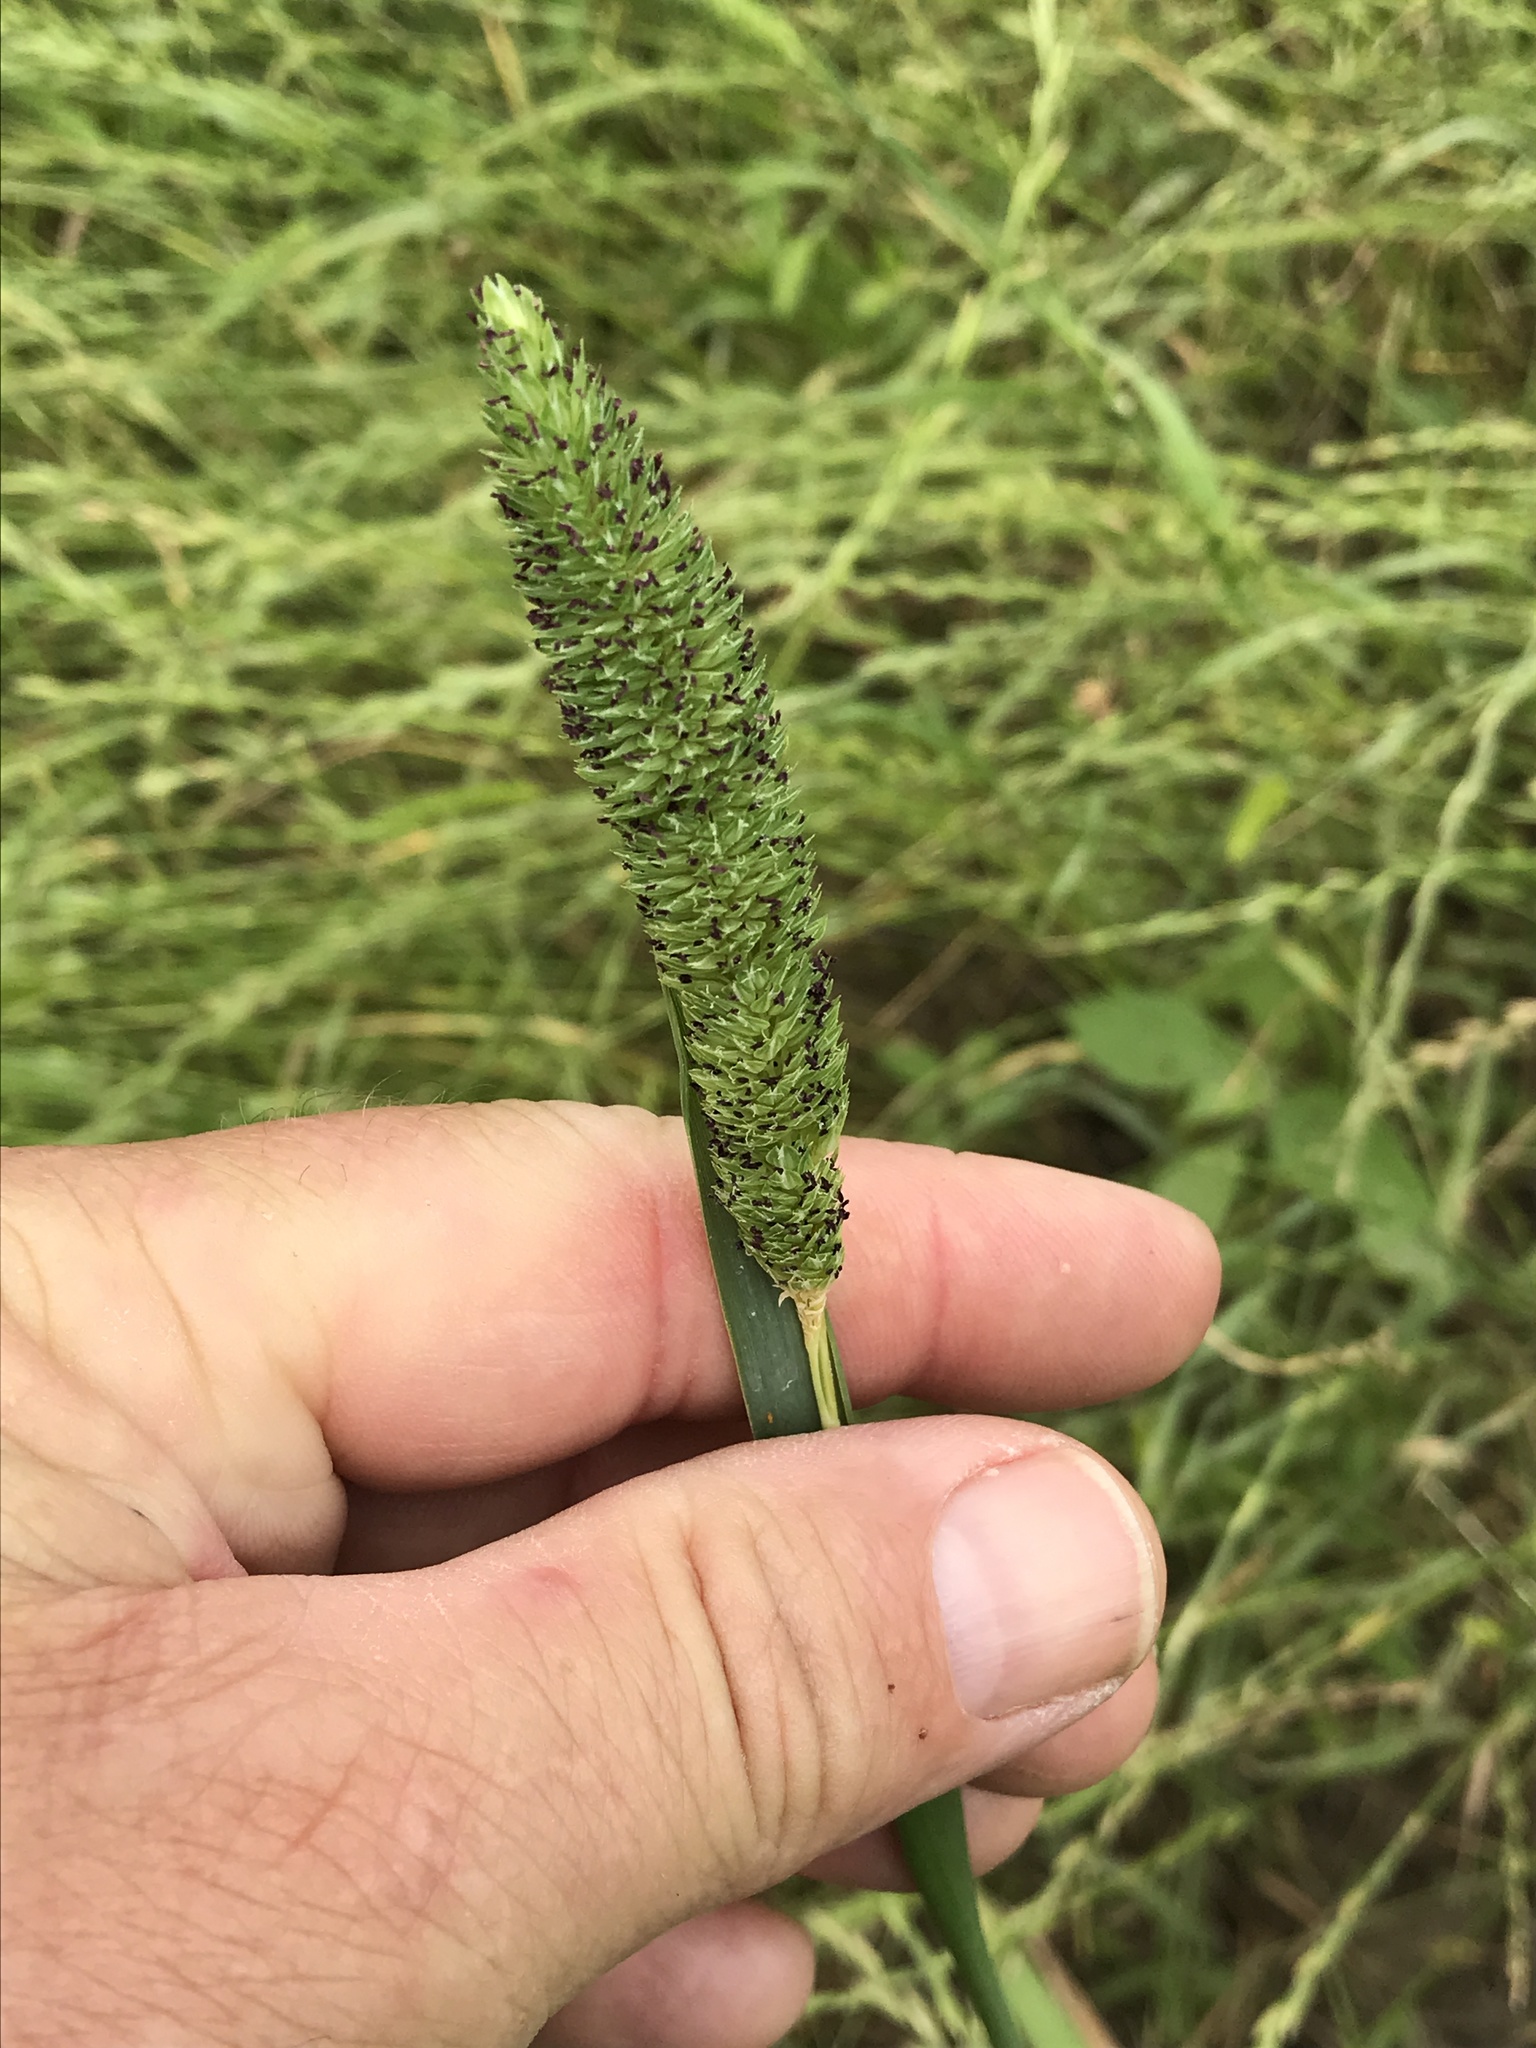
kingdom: Plantae
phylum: Tracheophyta
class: Liliopsida
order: Poales
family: Poaceae
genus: Phalaris
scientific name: Phalaris caroliniana
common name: May grass
